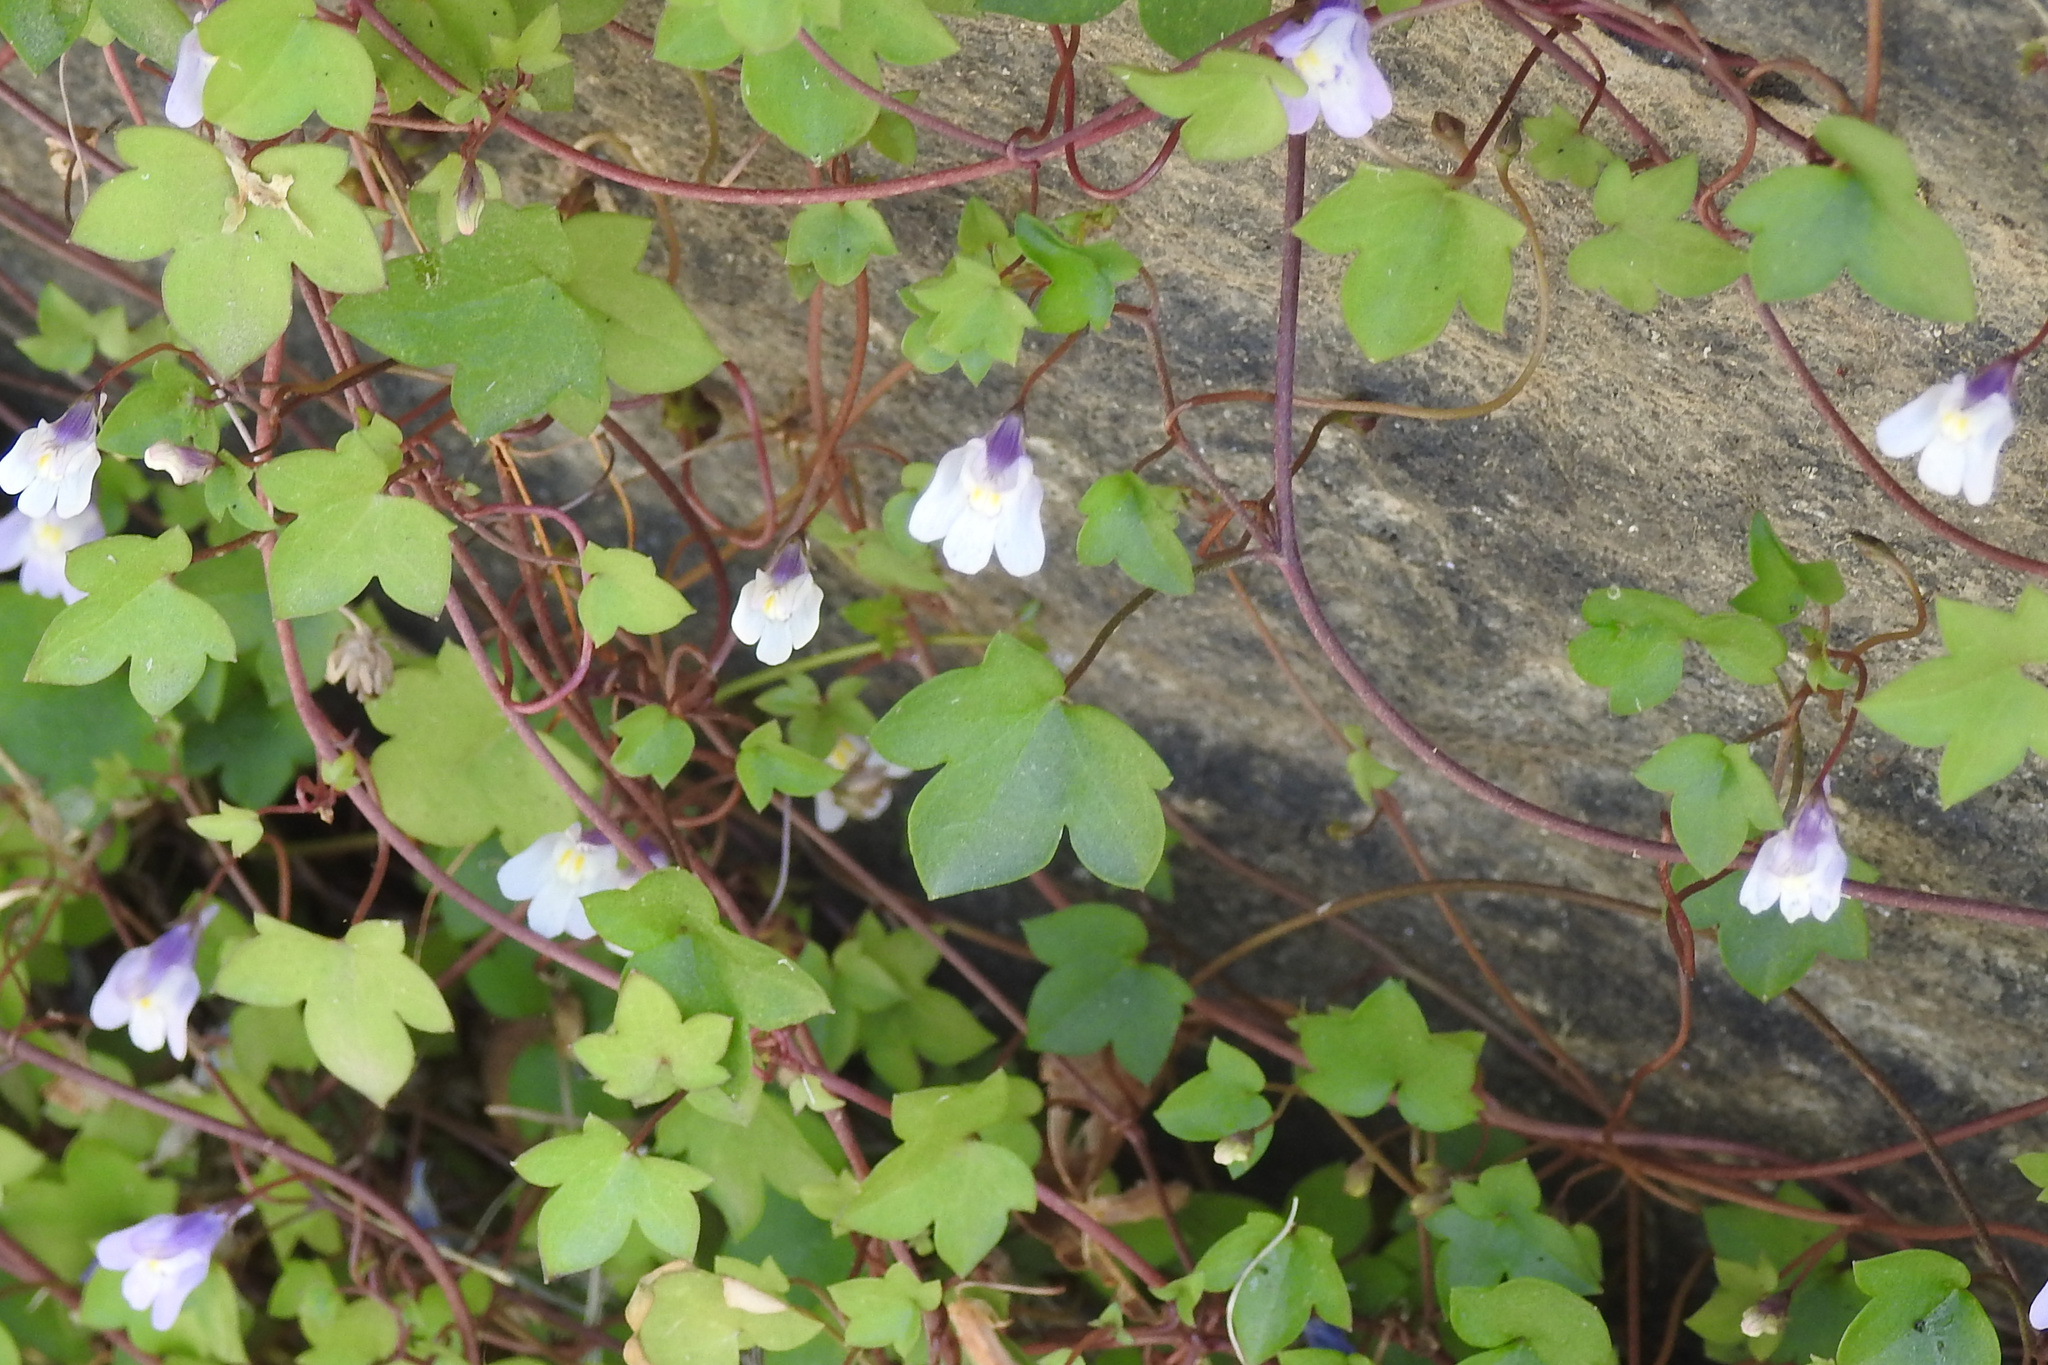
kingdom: Plantae
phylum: Tracheophyta
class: Magnoliopsida
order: Lamiales
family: Plantaginaceae
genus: Cymbalaria
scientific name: Cymbalaria muralis
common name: Ivy-leaved toadflax
